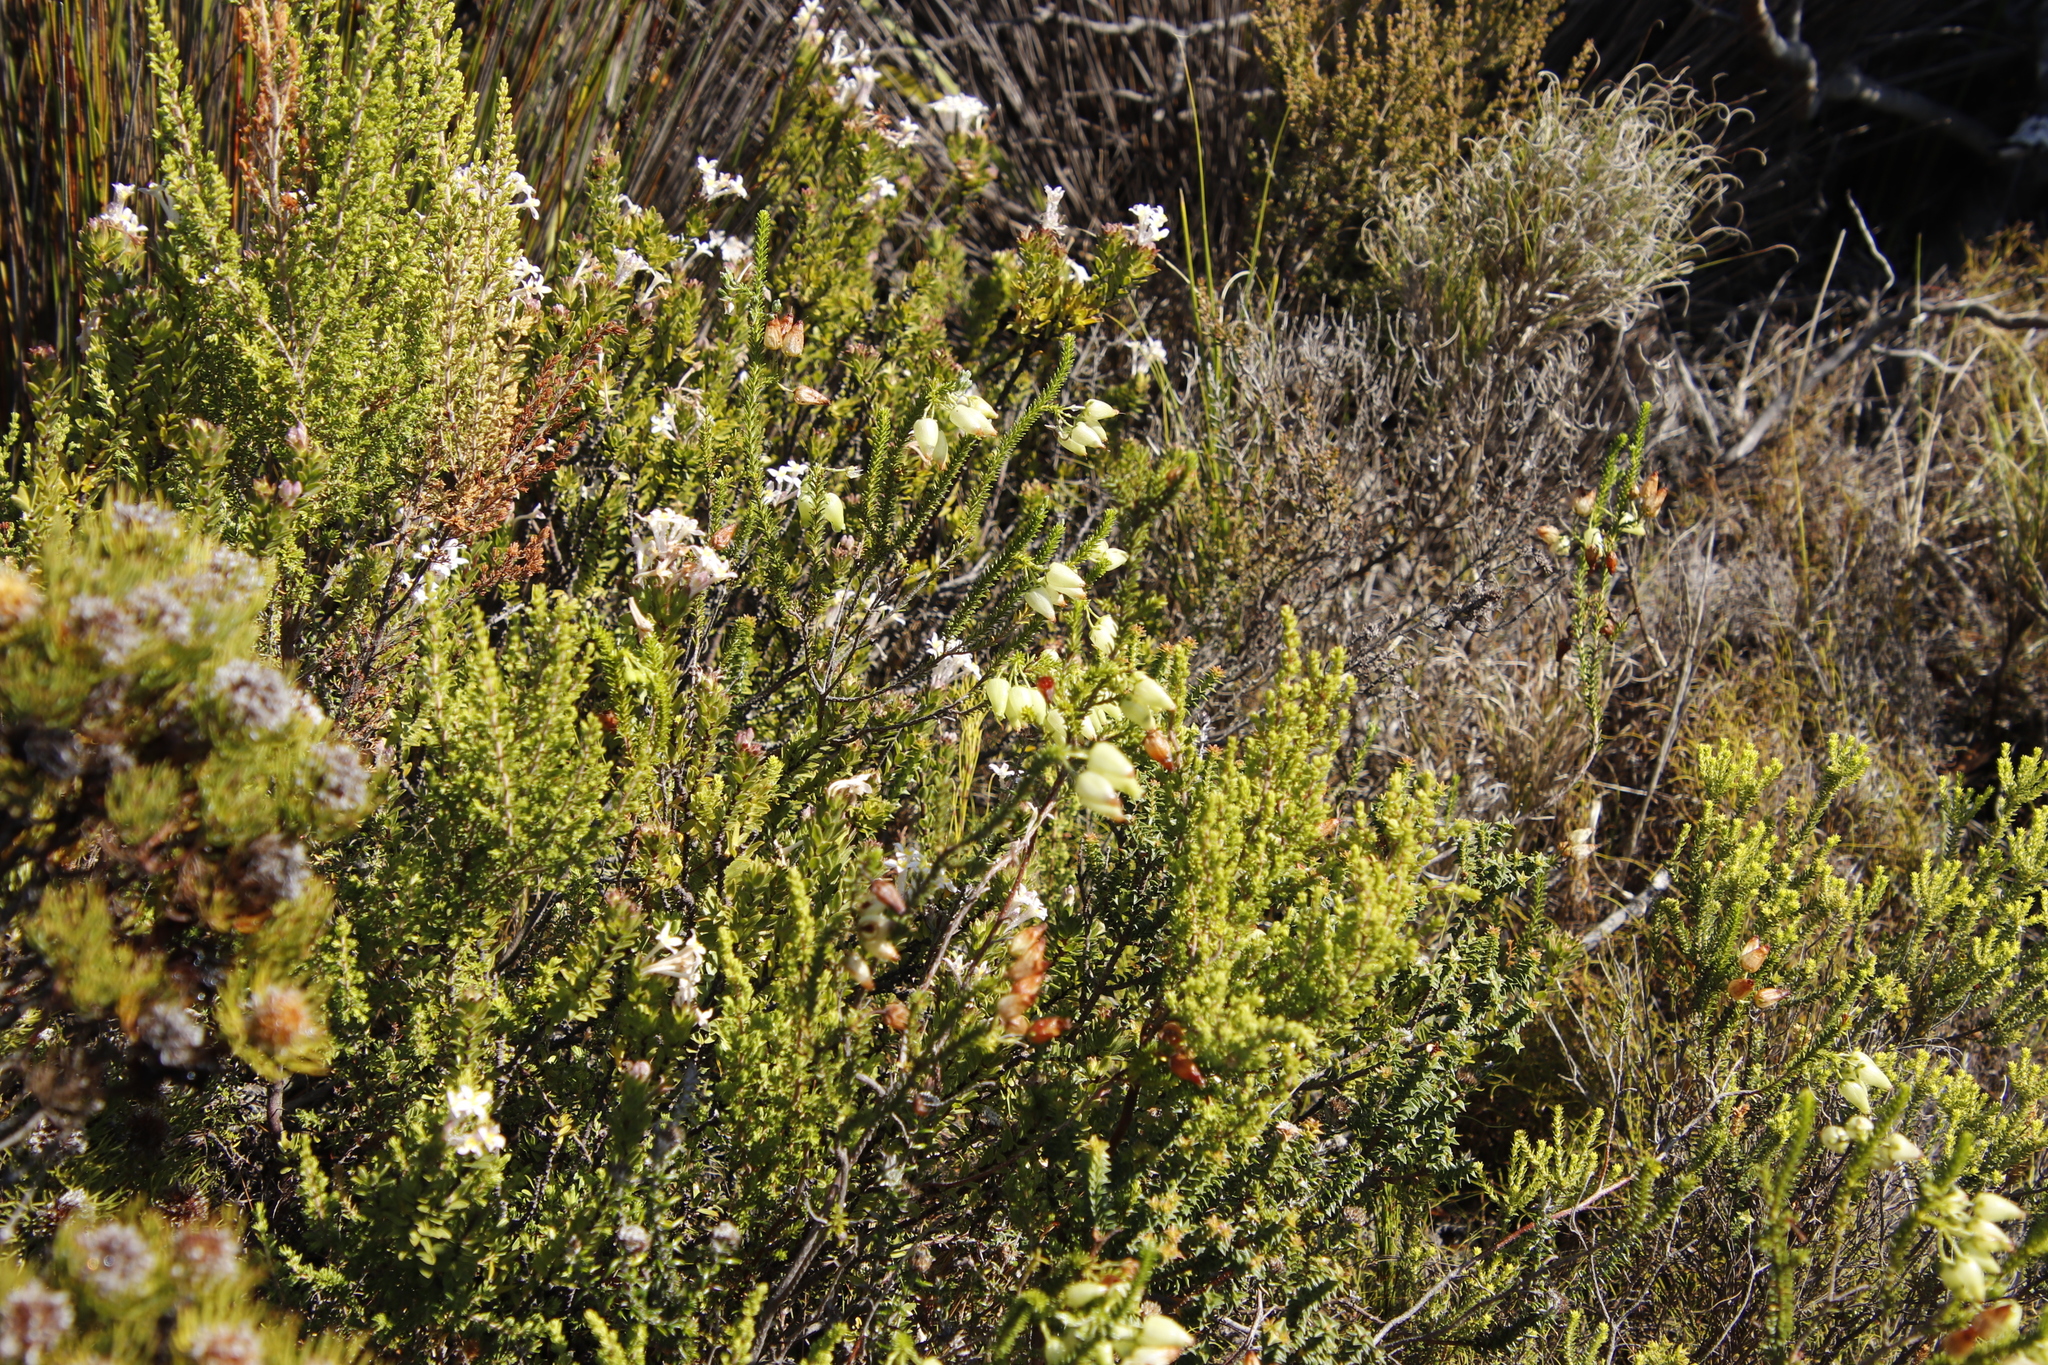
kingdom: Plantae
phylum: Tracheophyta
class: Magnoliopsida
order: Ericales
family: Ericaceae
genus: Erica
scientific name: Erica urna-viridis
